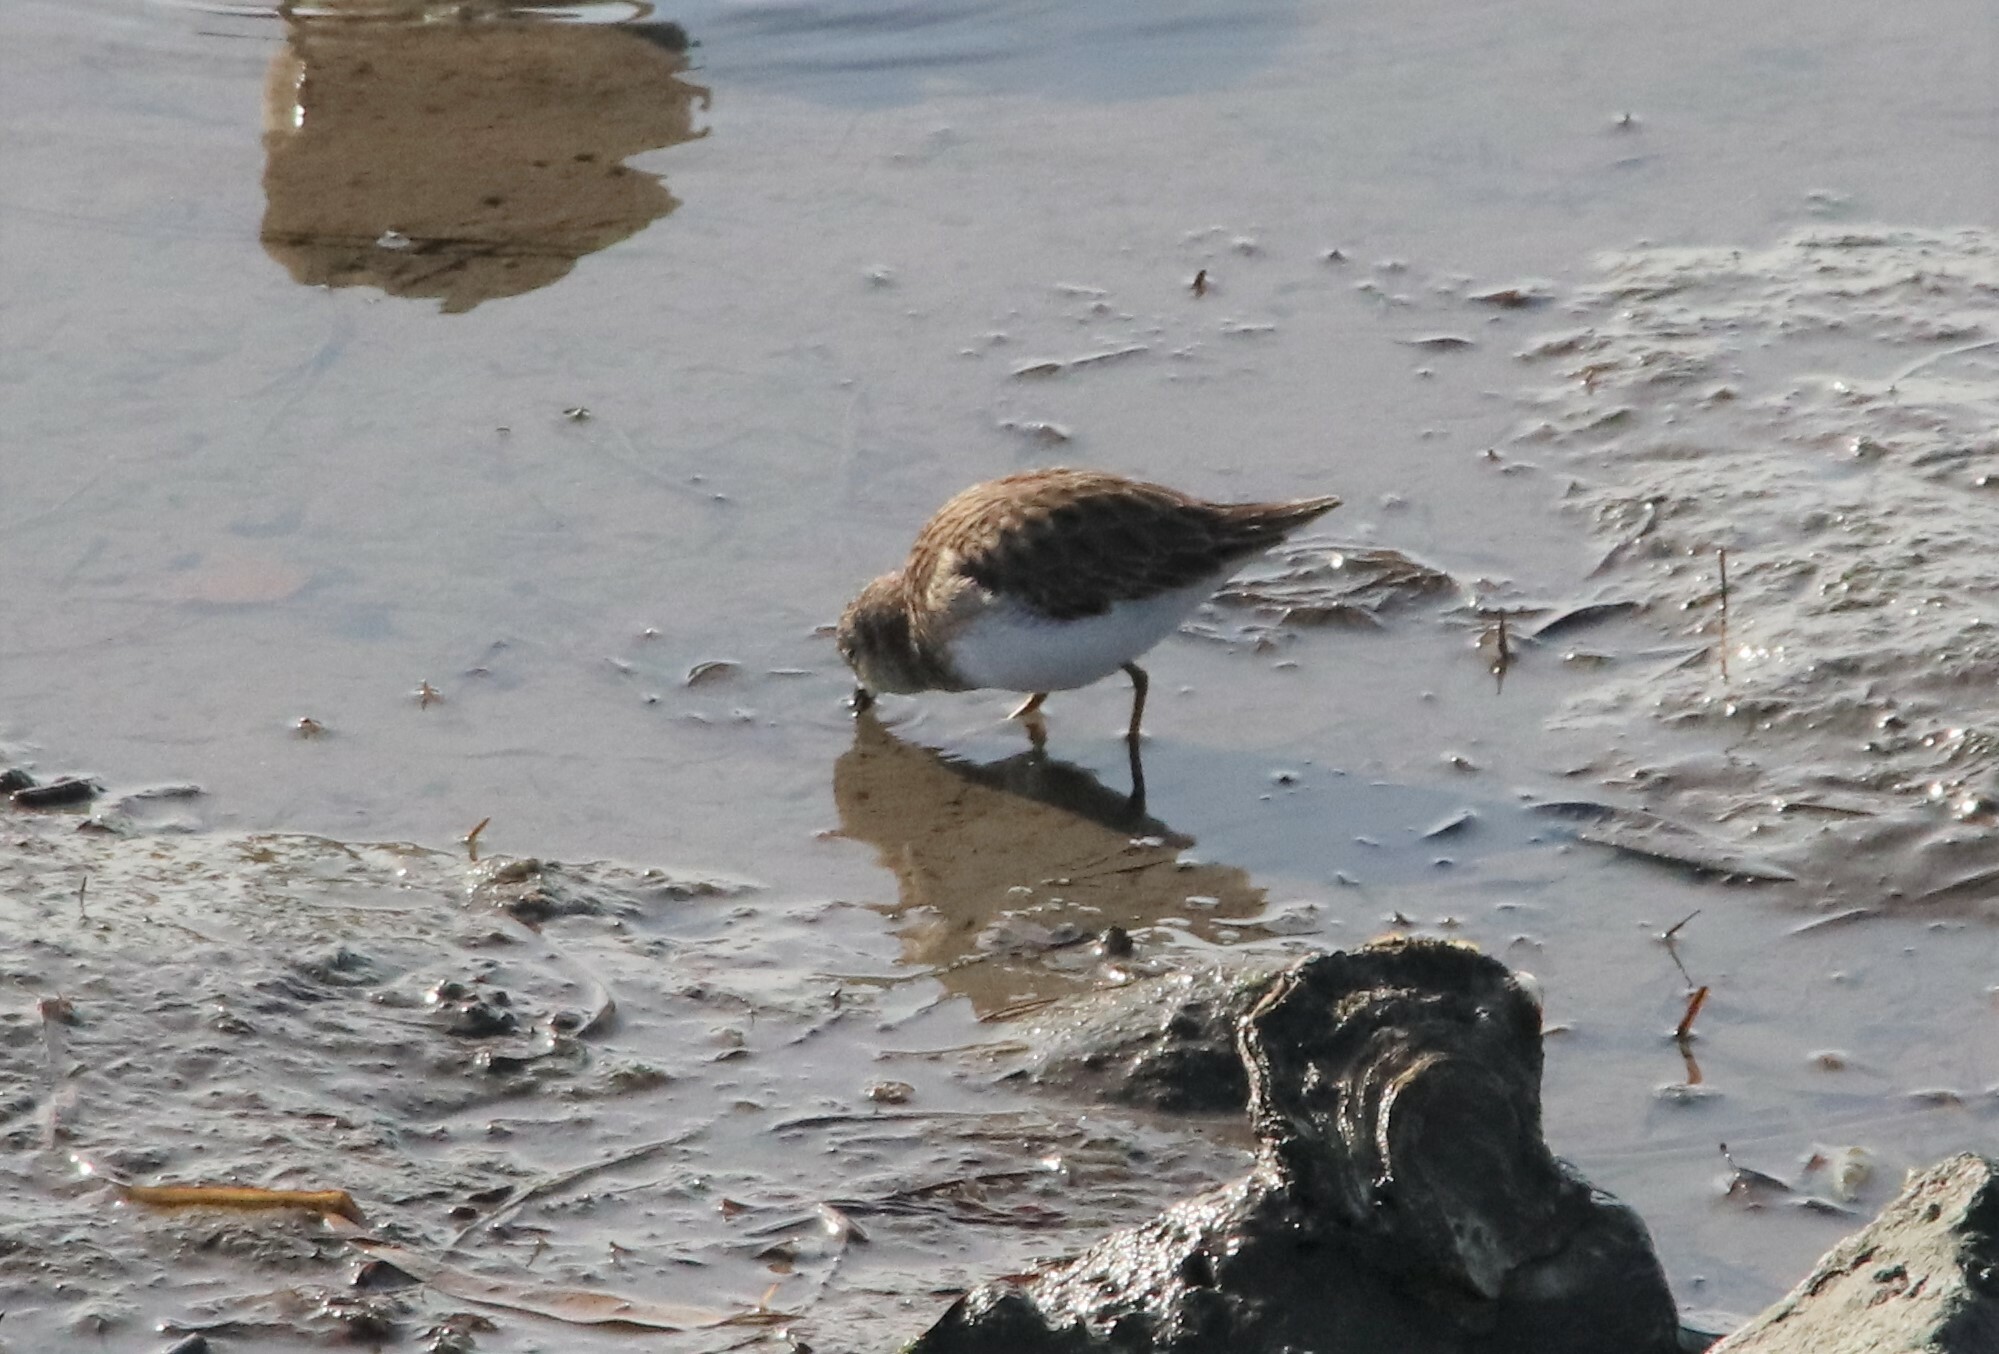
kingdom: Animalia
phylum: Chordata
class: Aves
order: Charadriiformes
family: Scolopacidae
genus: Calidris
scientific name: Calidris minutilla
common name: Least sandpiper
